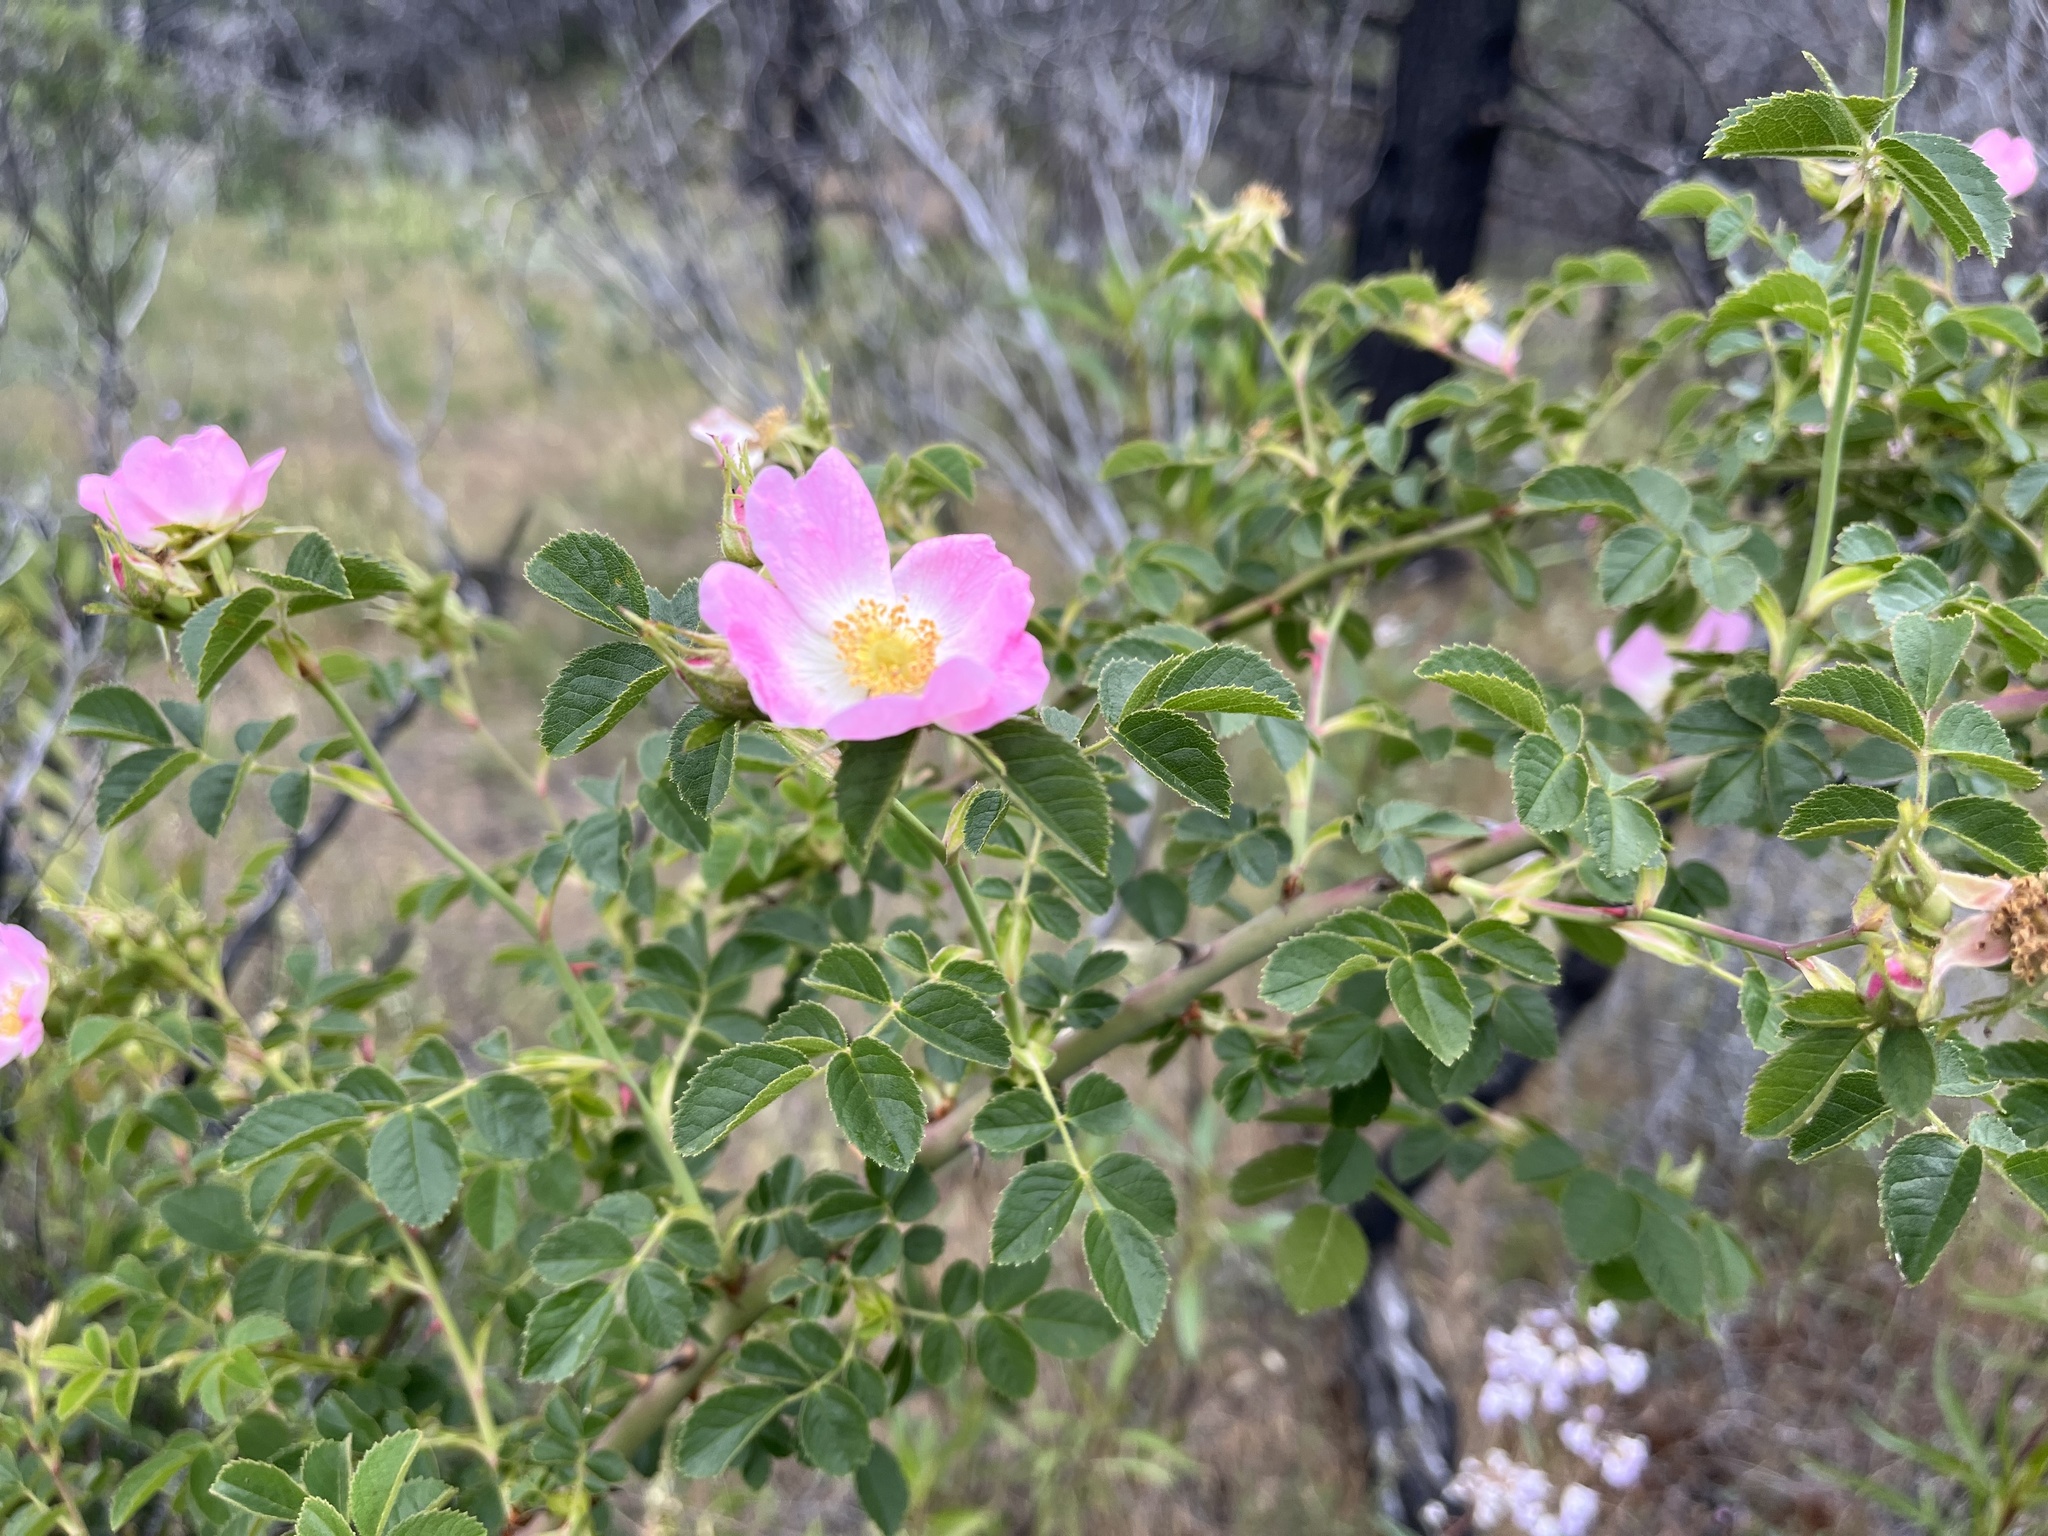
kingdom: Plantae
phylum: Tracheophyta
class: Magnoliopsida
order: Rosales
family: Rosaceae
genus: Rosa
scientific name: Rosa rubiginosa
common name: Sweet-briar
